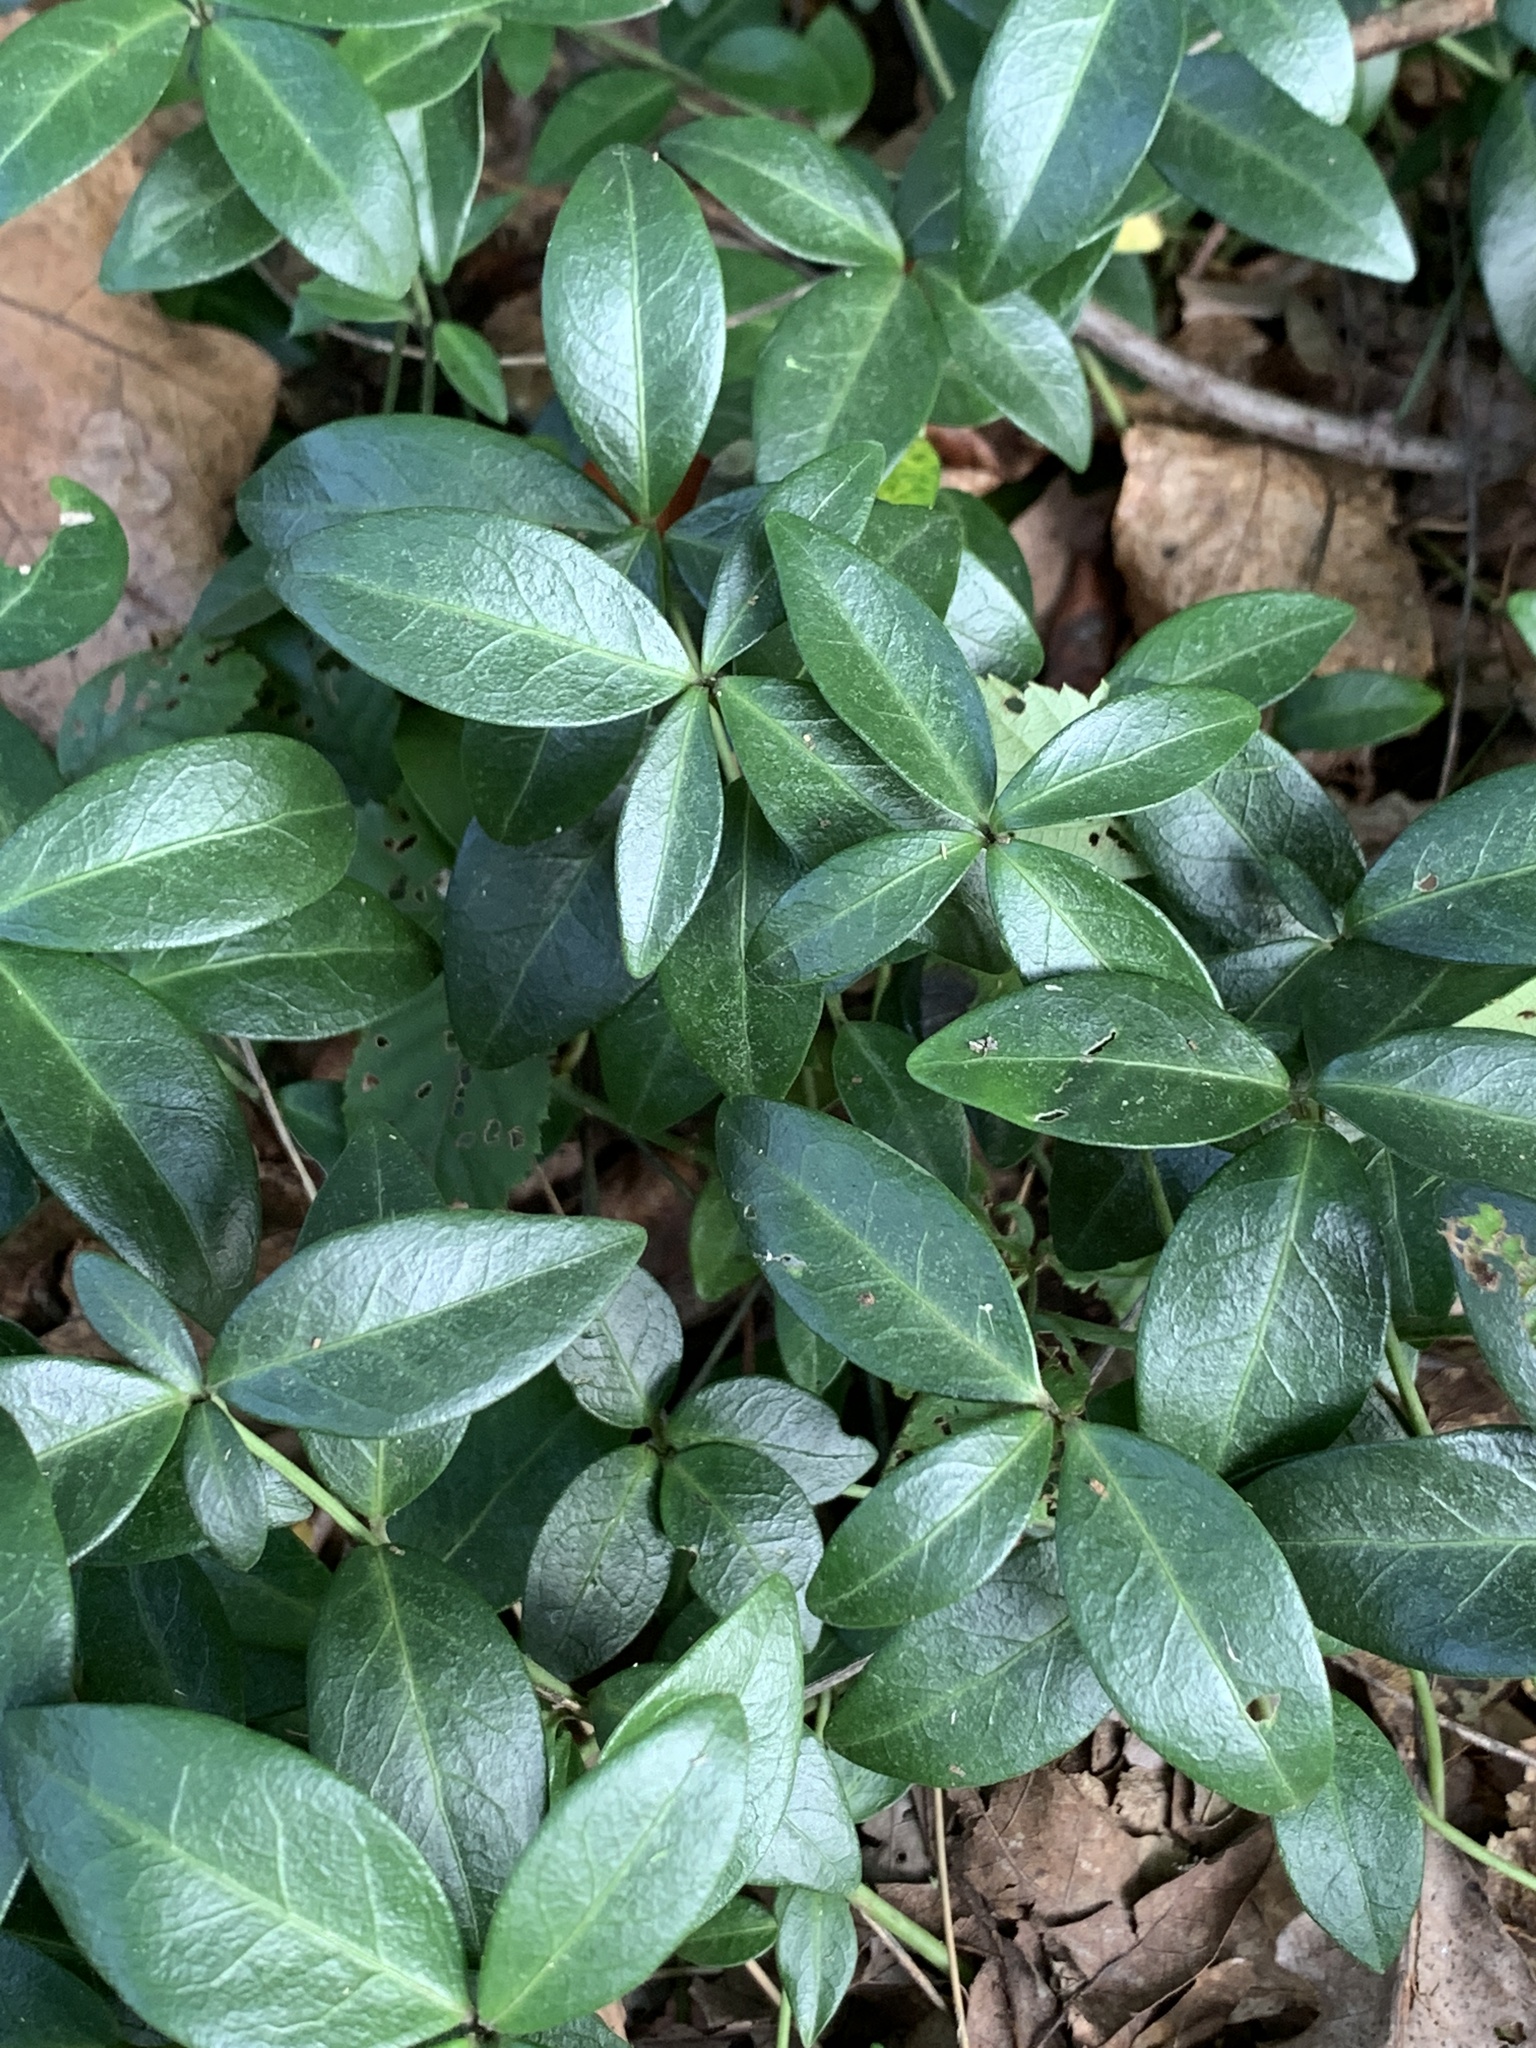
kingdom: Plantae
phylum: Tracheophyta
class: Magnoliopsida
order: Gentianales
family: Apocynaceae
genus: Vinca
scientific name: Vinca minor
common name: Lesser periwinkle
